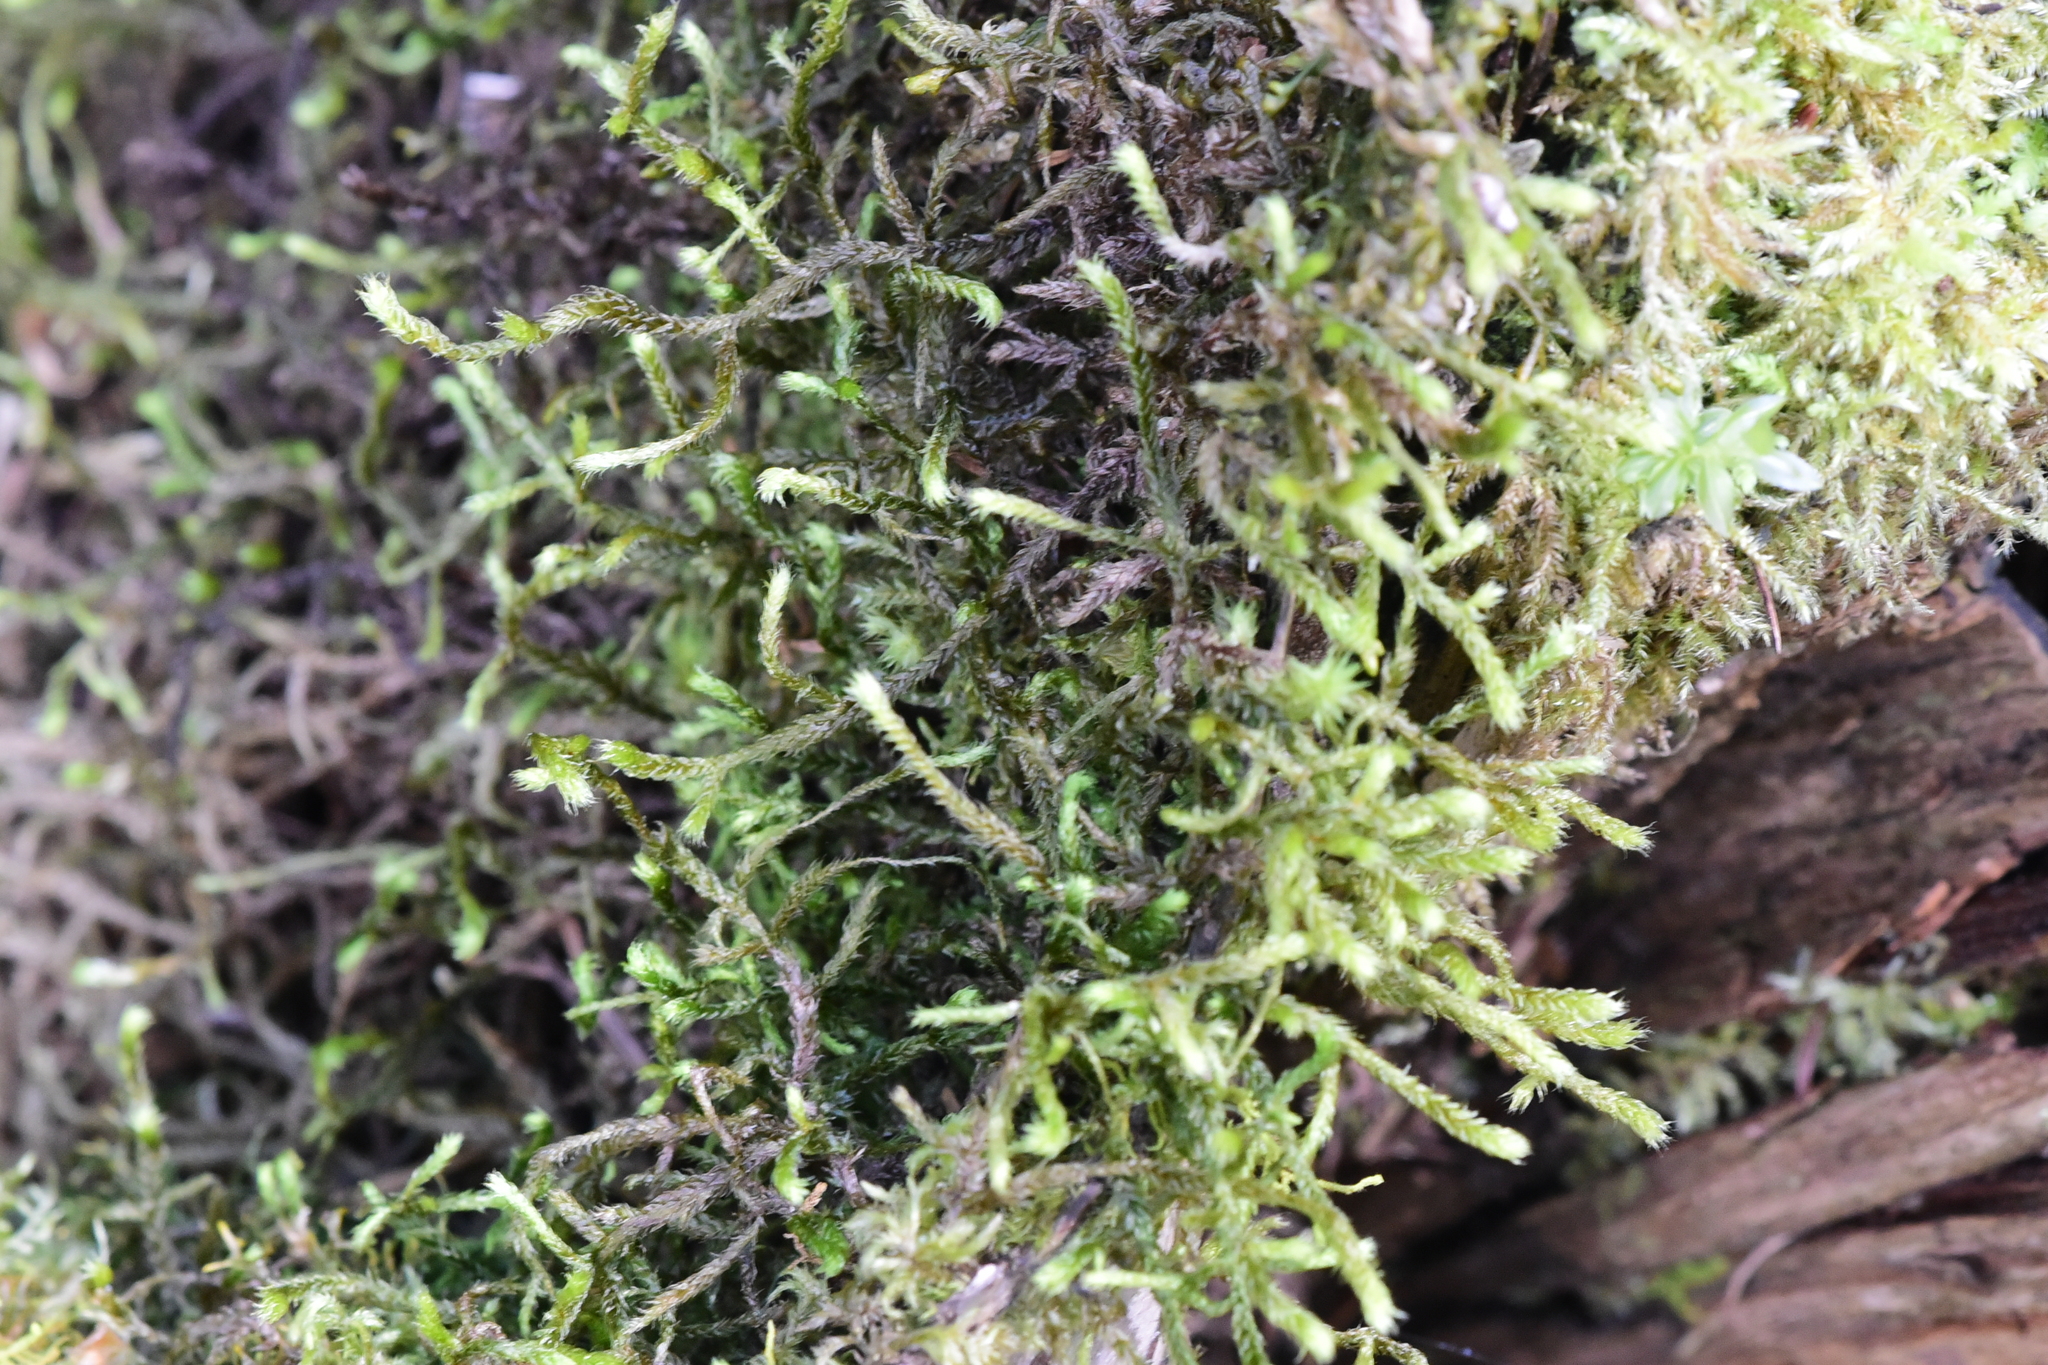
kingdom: Plantae
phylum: Bryophyta
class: Bryopsida
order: Hypnales
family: Antitrichiaceae
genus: Antitrichia
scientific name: Antitrichia curtipendula
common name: Pendulous wing-moss
